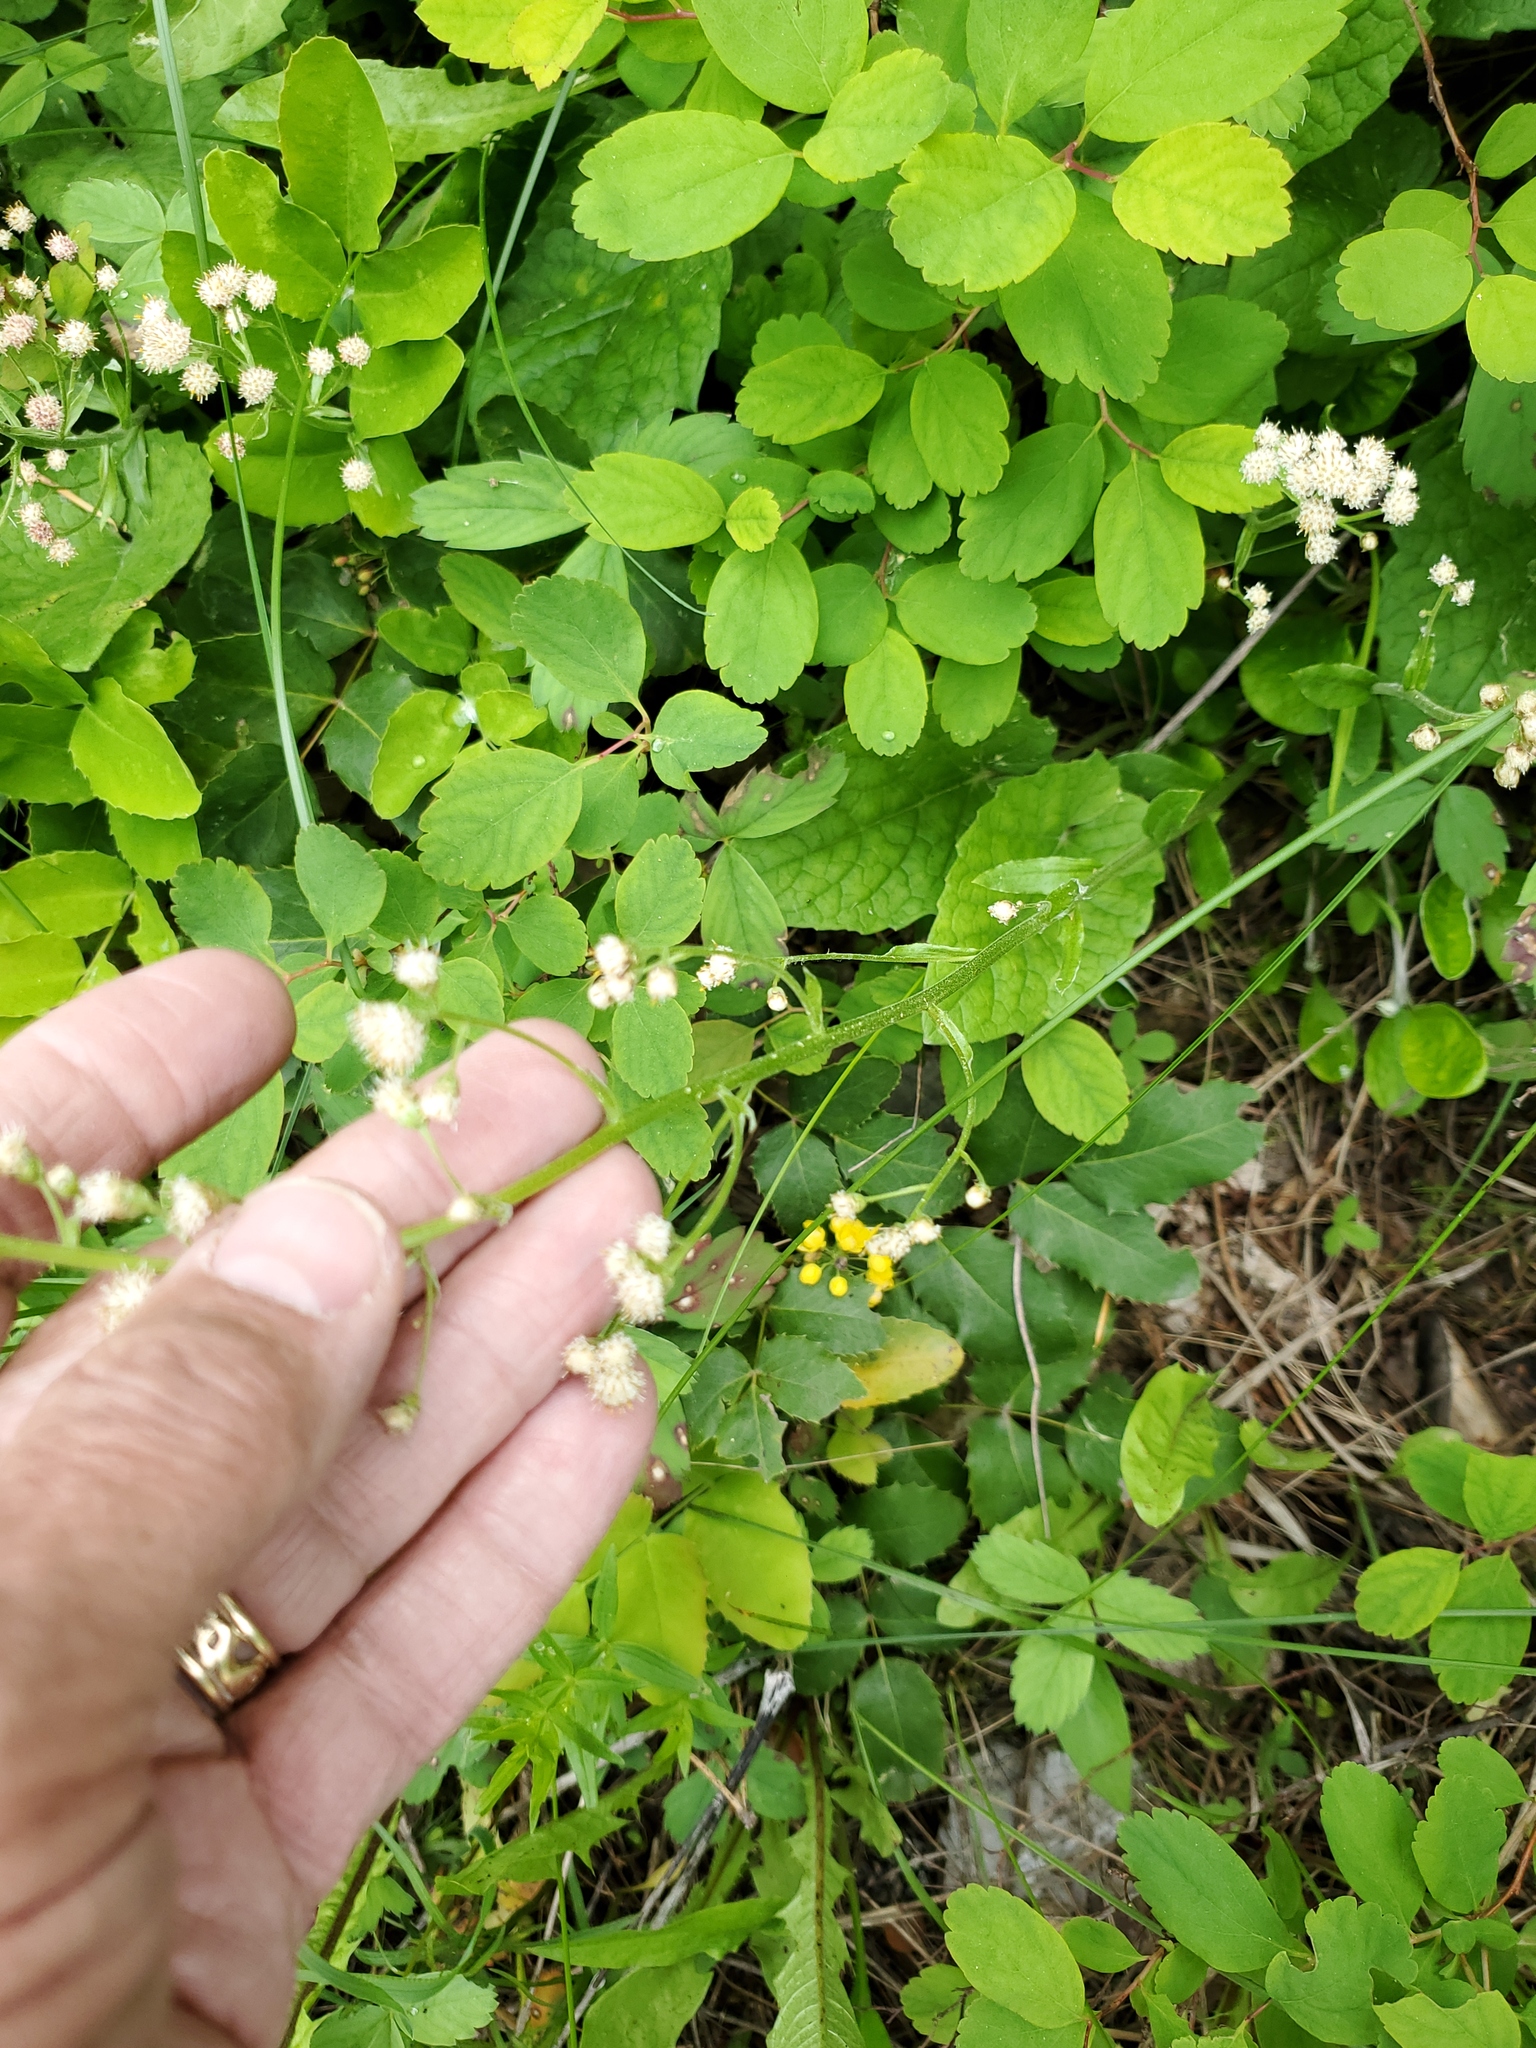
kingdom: Plantae
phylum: Tracheophyta
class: Magnoliopsida
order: Asterales
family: Asteraceae
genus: Antennaria
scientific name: Antennaria racemosa
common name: Racemose pussytoes
